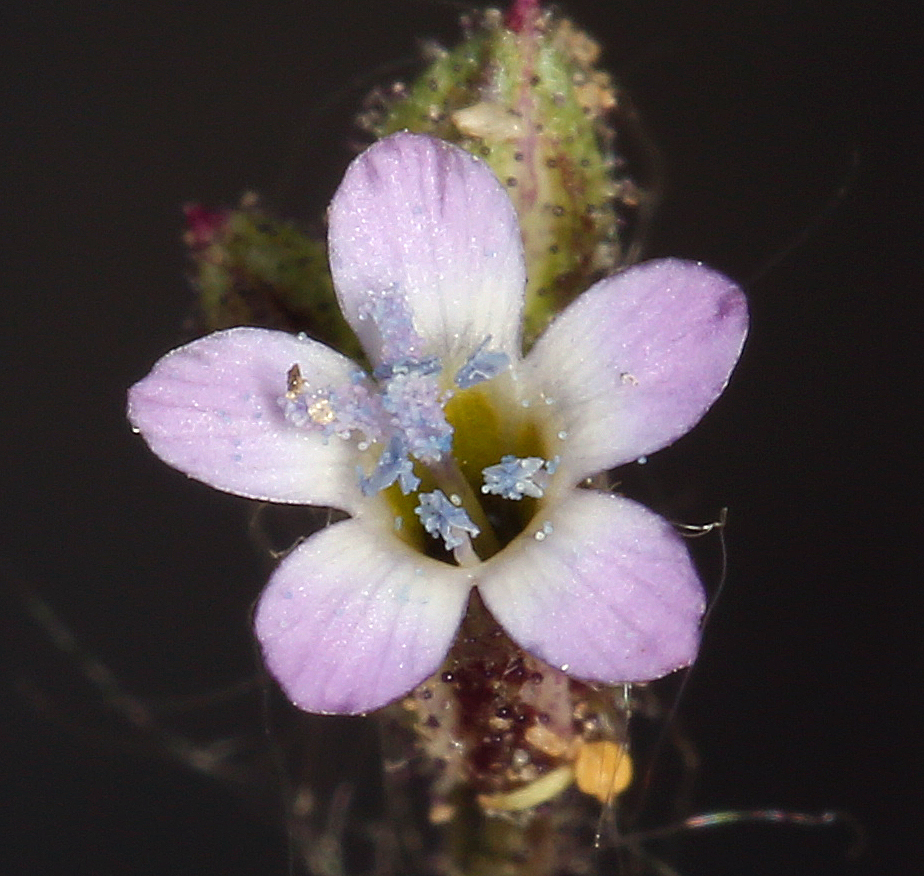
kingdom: Plantae
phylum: Tracheophyta
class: Magnoliopsida
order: Ericales
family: Polemoniaceae
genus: Gilia
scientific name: Gilia malior
